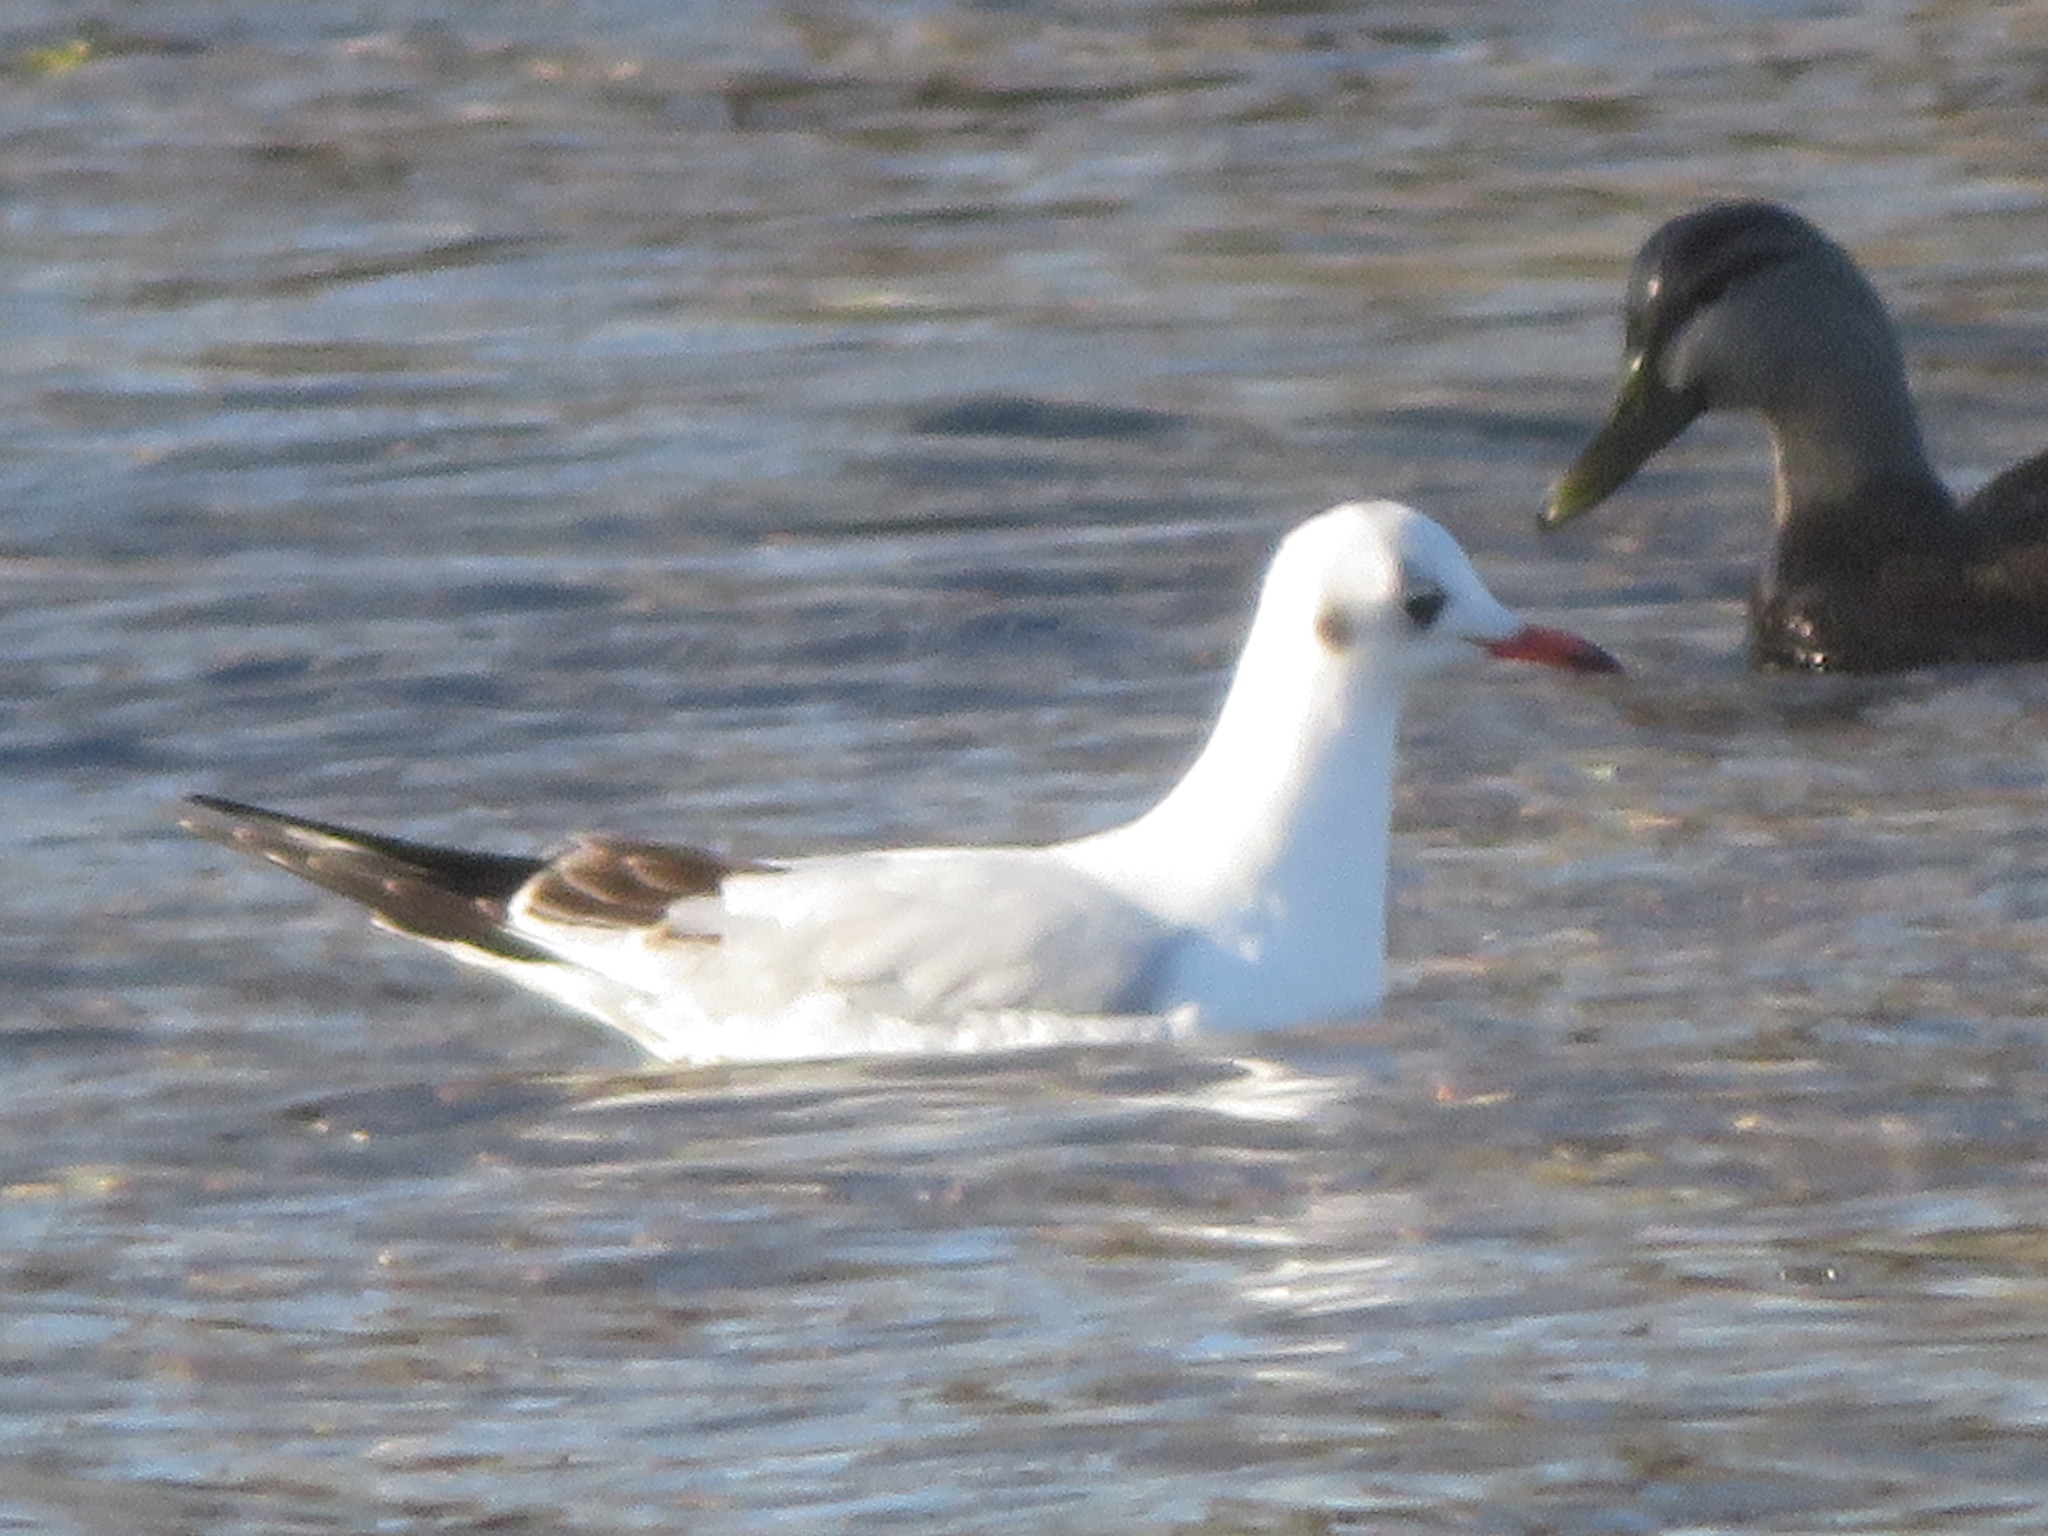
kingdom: Animalia
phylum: Chordata
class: Aves
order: Charadriiformes
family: Laridae
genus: Chroicocephalus
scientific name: Chroicocephalus ridibundus
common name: Black-headed gull
